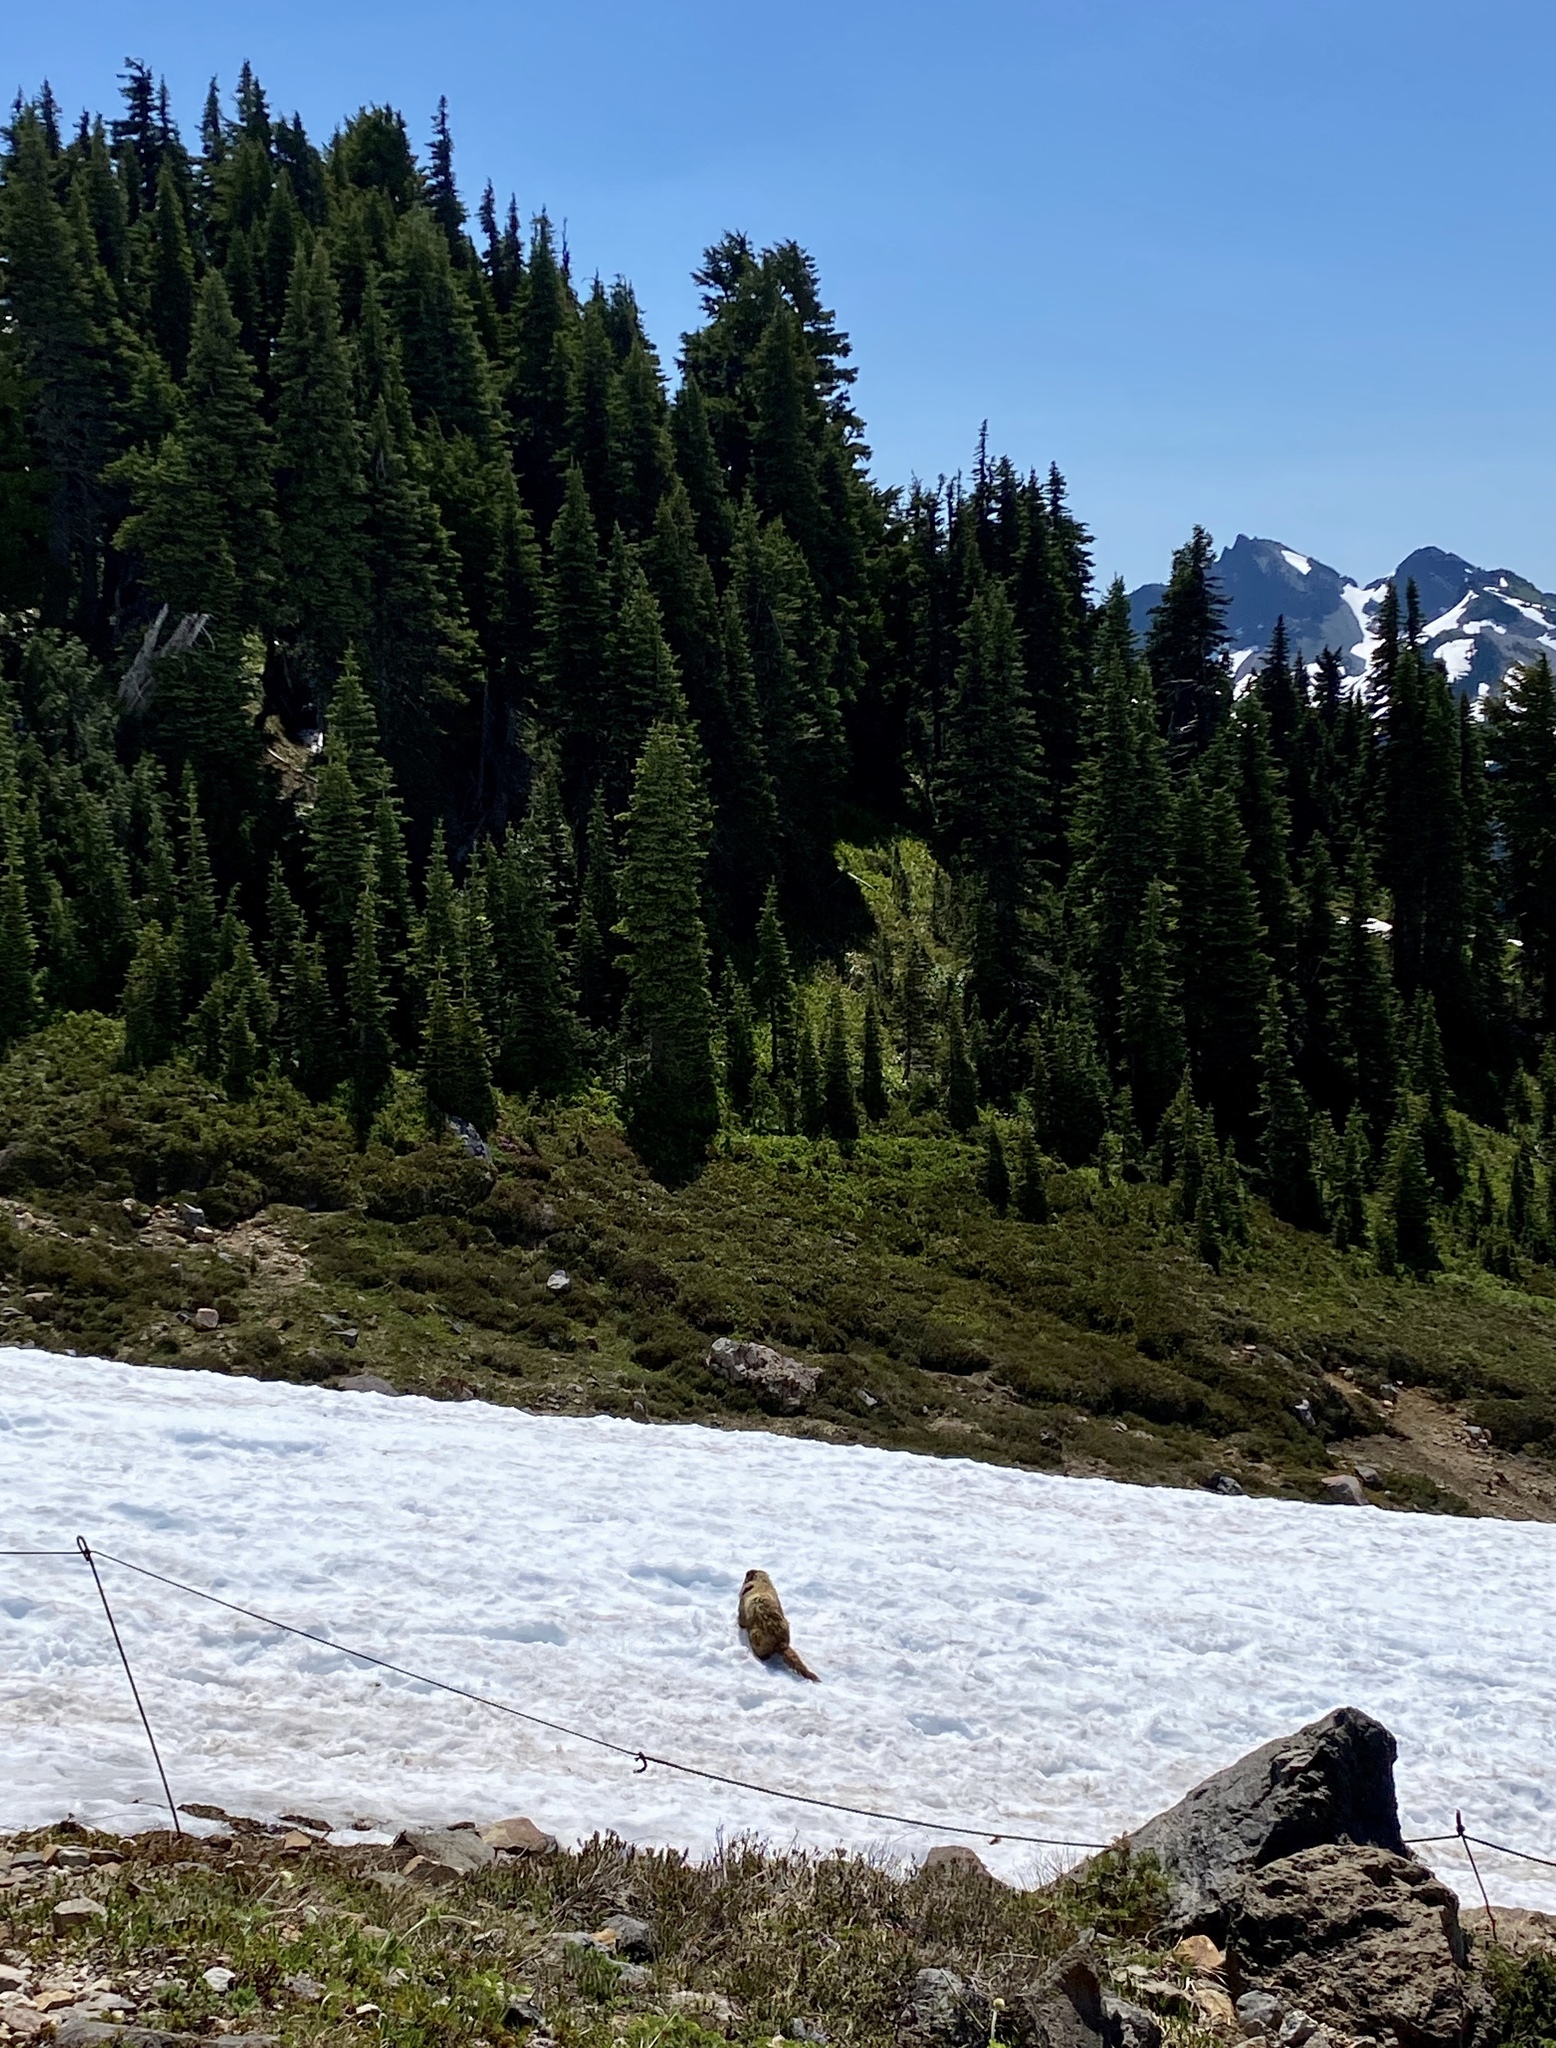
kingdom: Animalia
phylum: Chordata
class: Mammalia
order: Rodentia
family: Sciuridae
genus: Marmota
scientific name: Marmota caligata
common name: Hoary marmot
